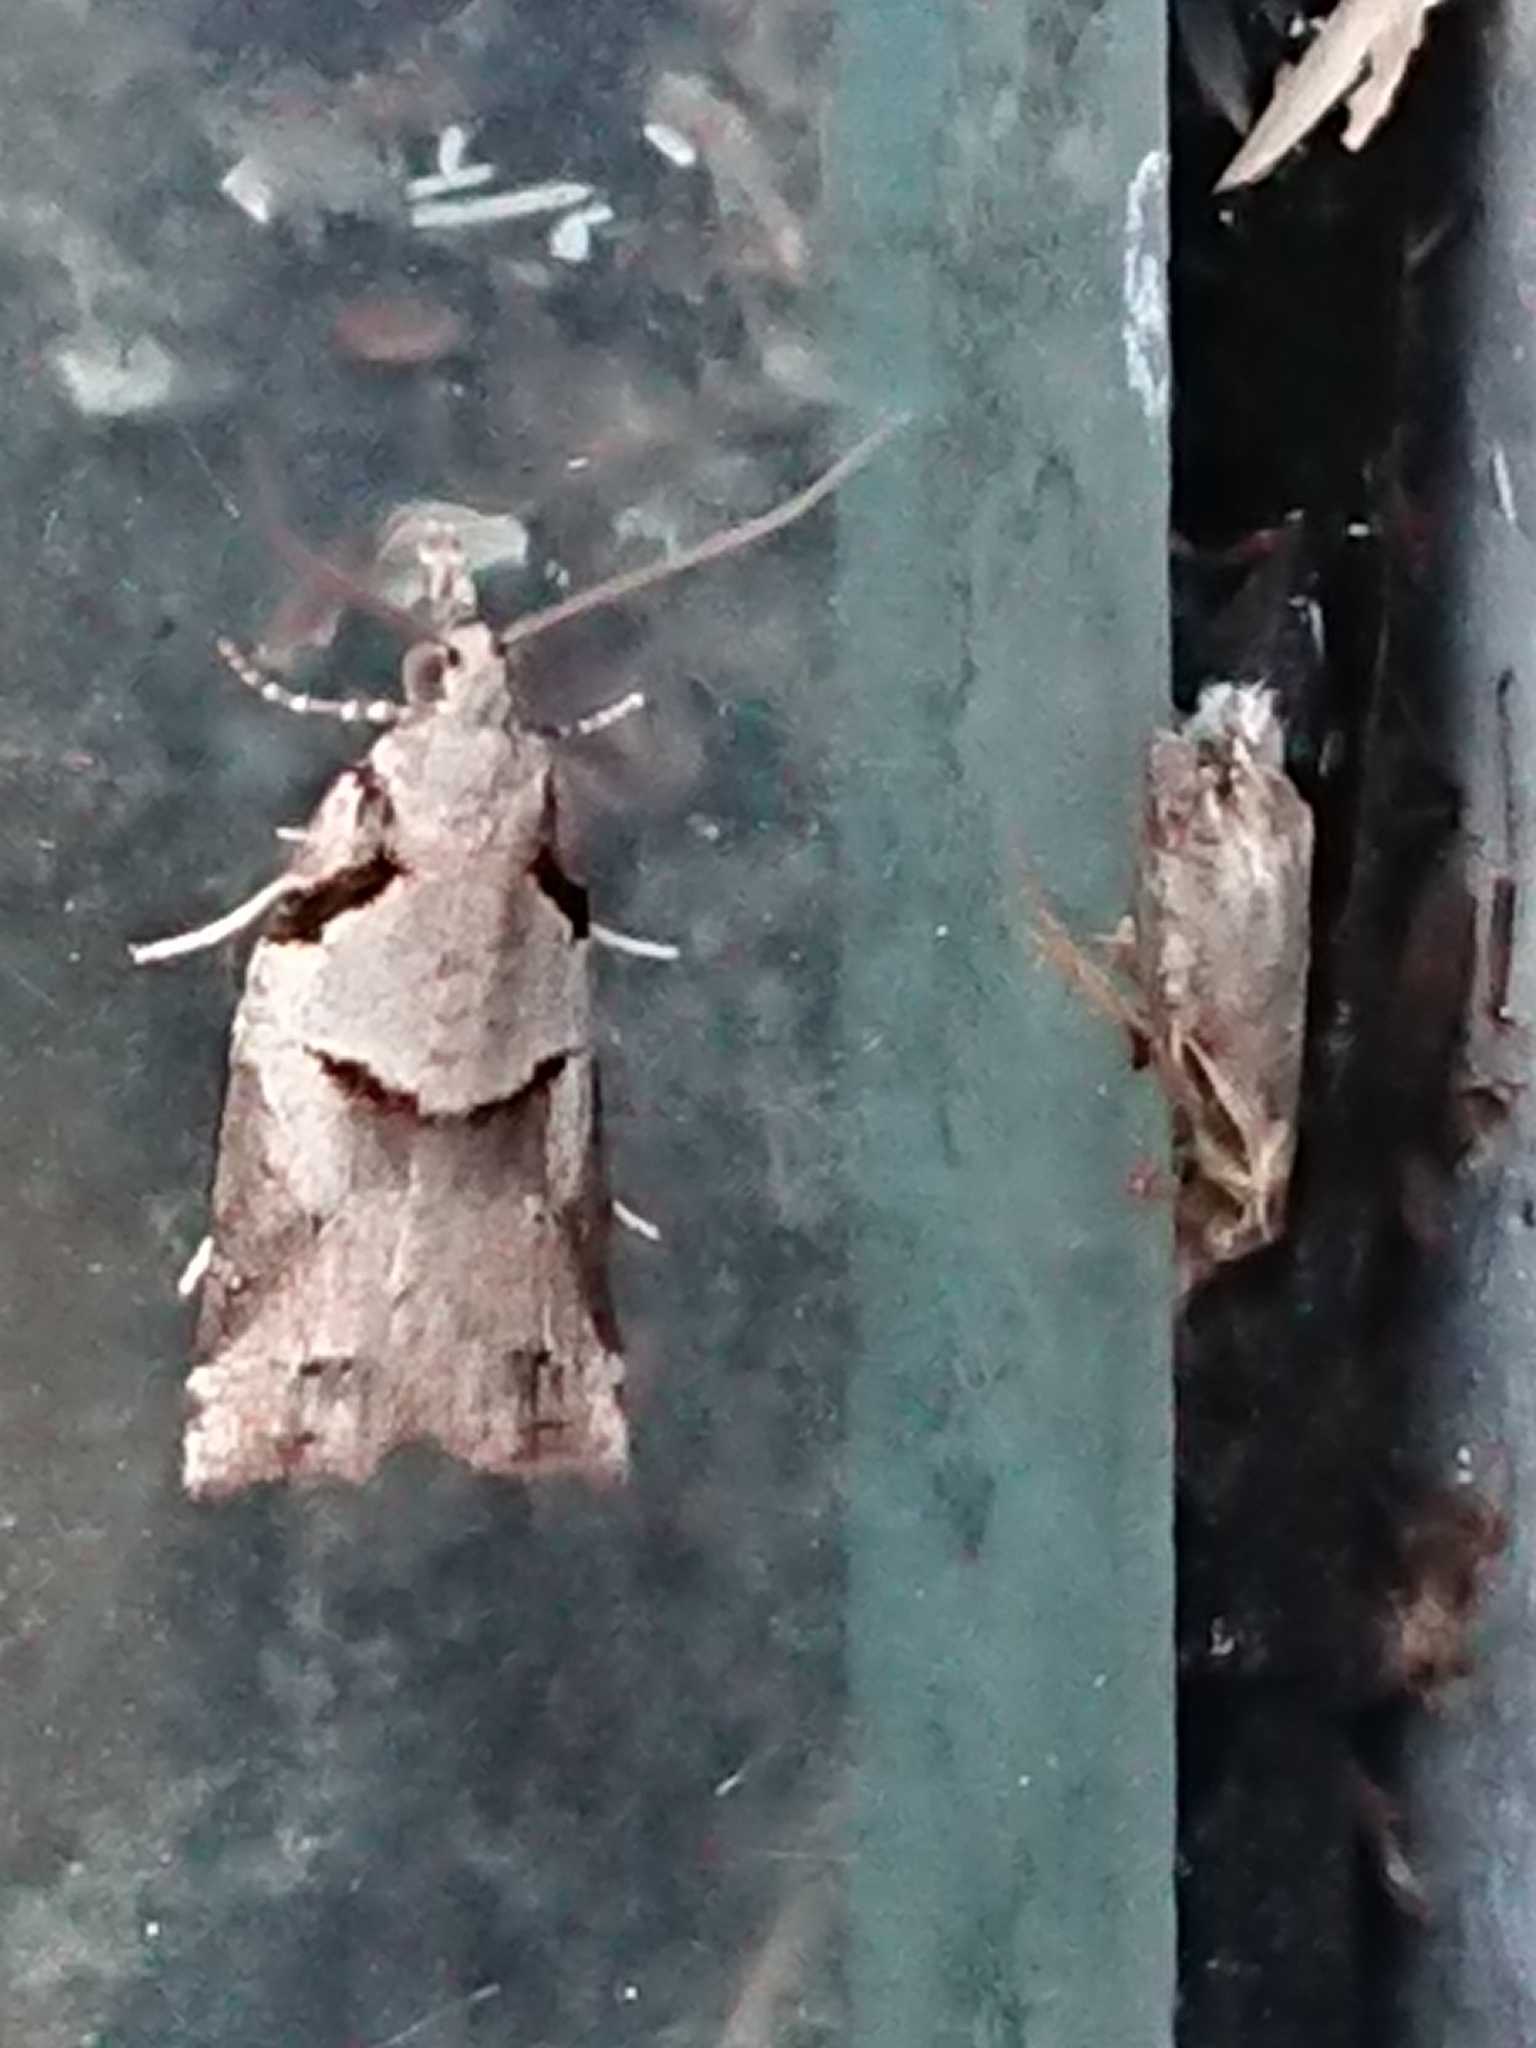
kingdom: Animalia
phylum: Arthropoda
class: Insecta
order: Lepidoptera
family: Tortricidae
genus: Harmologa
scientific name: Harmologa amplexana
